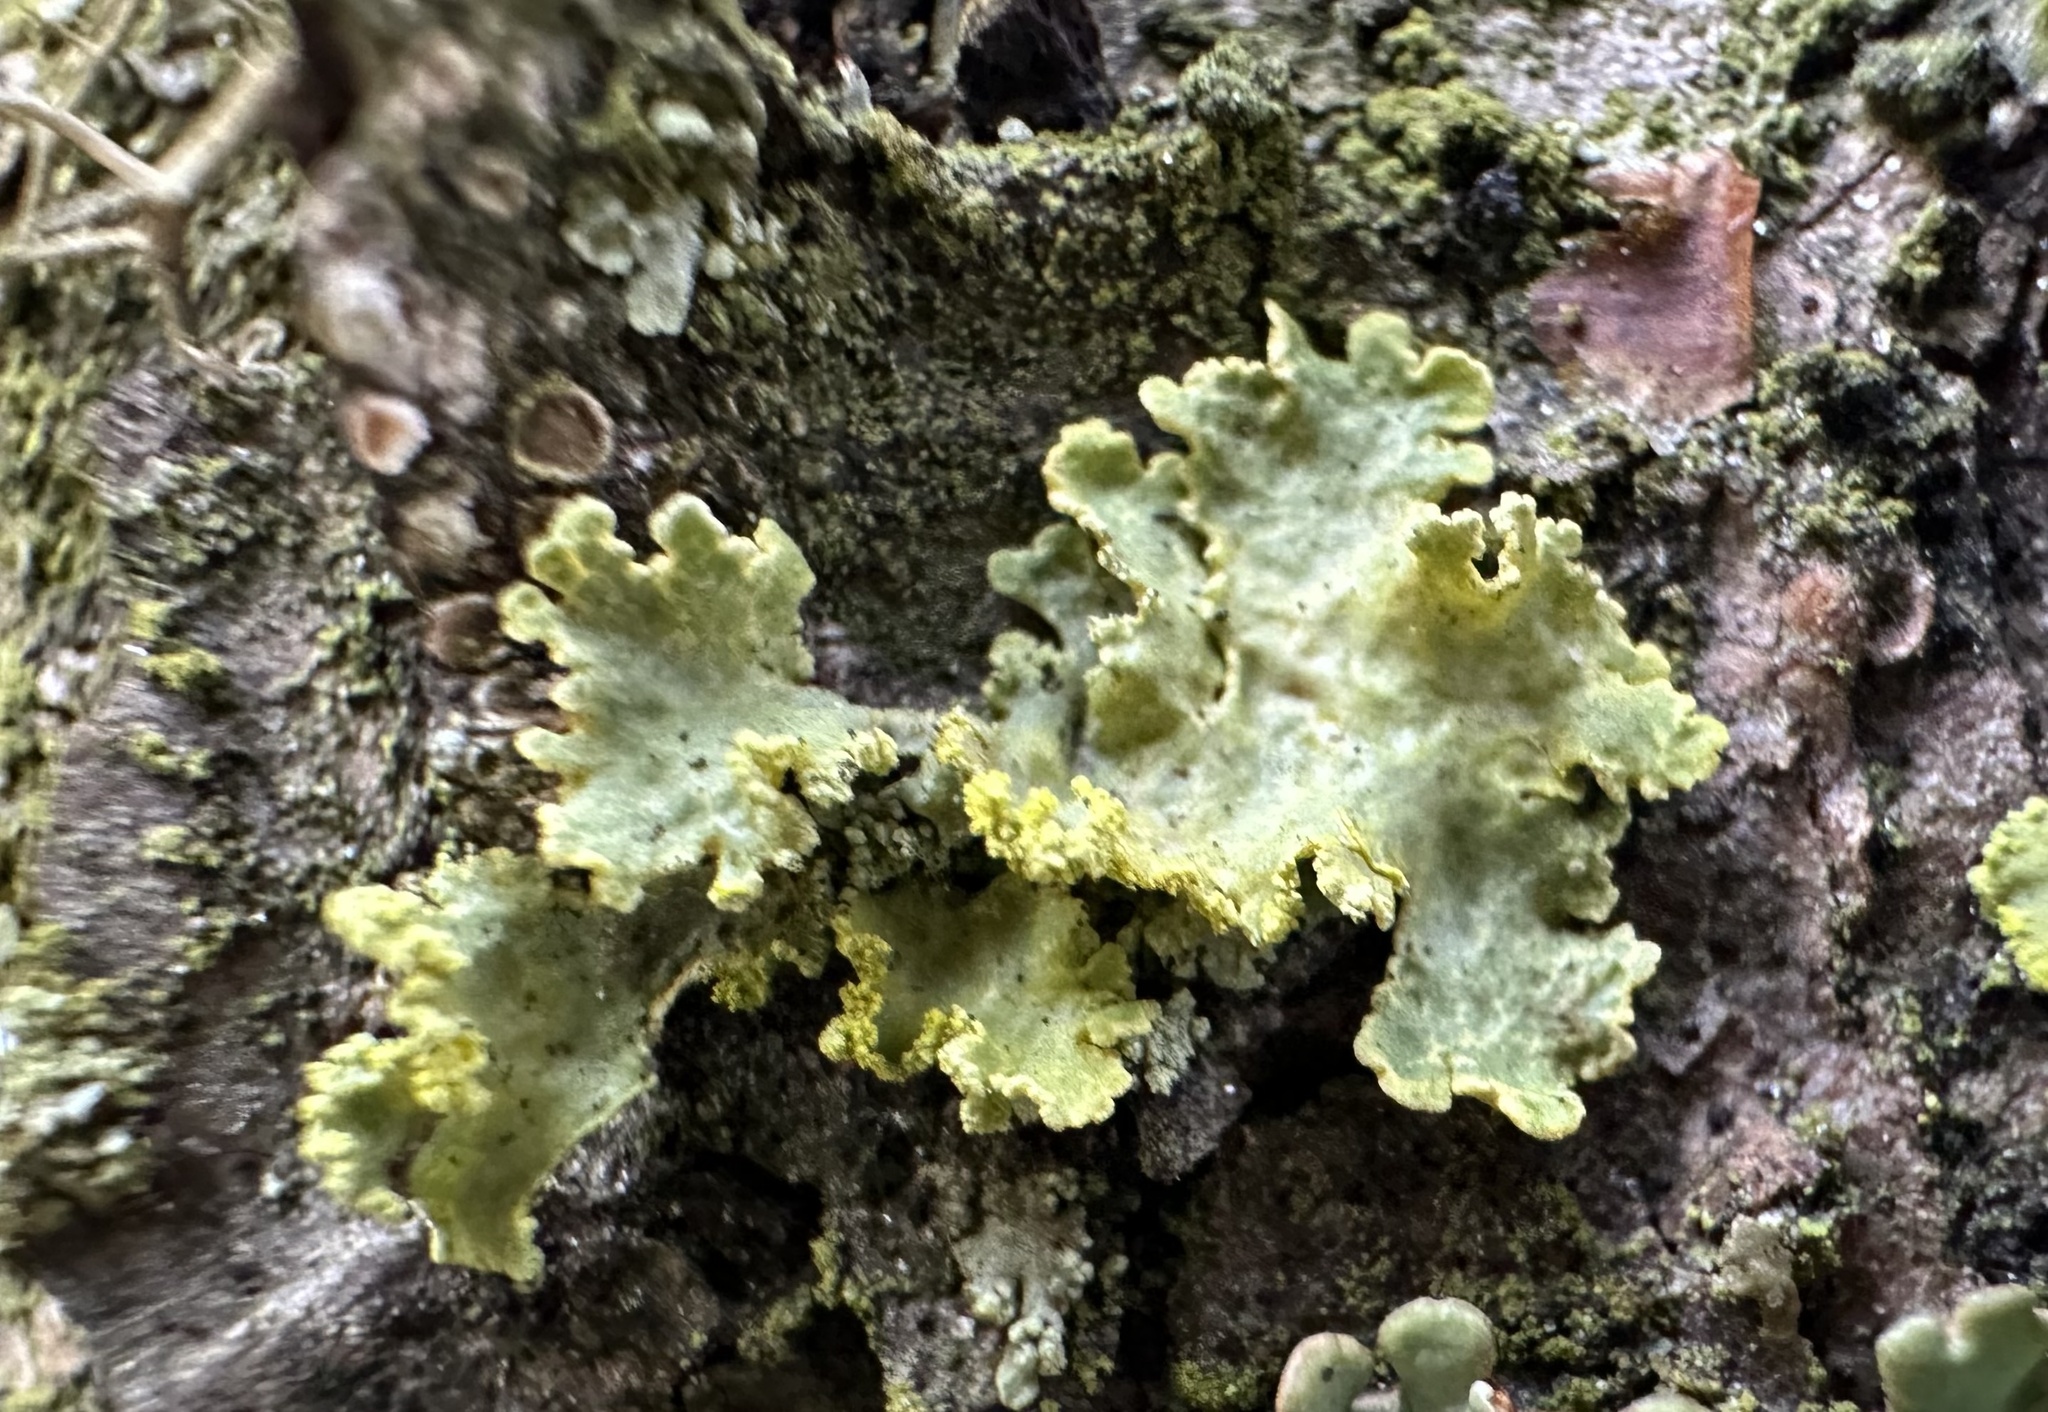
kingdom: Fungi
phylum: Ascomycota
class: Lecanoromycetes
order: Lecanorales
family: Parmeliaceae
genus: Vulpicida
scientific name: Vulpicida pinastri
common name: Powdered sunshine lichen
